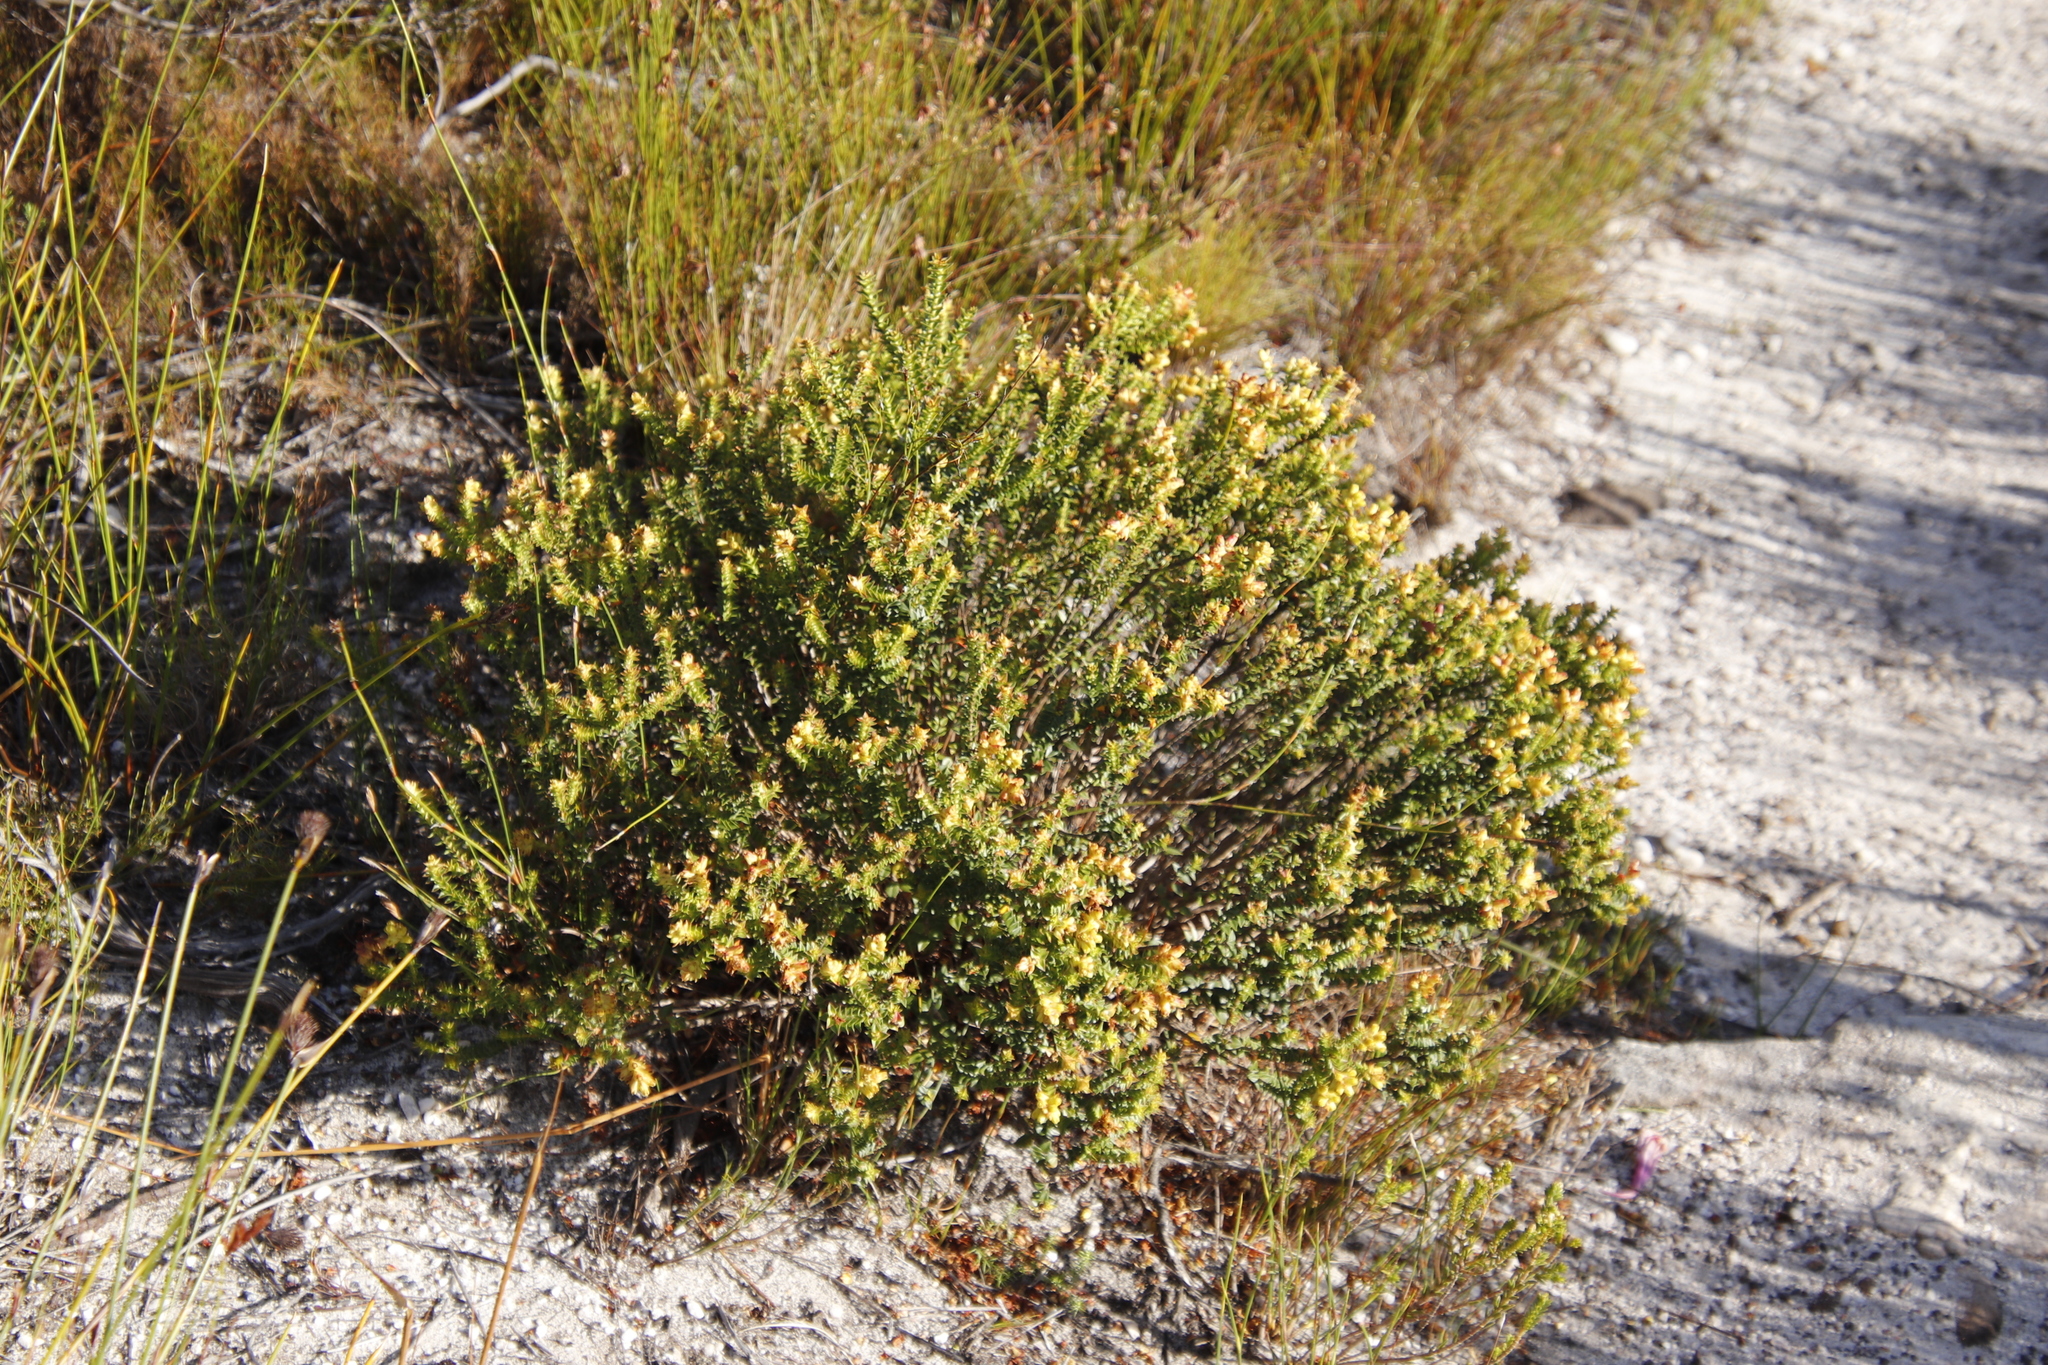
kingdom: Plantae
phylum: Tracheophyta
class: Magnoliopsida
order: Myrtales
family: Penaeaceae
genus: Penaea
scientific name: Penaea mucronata
